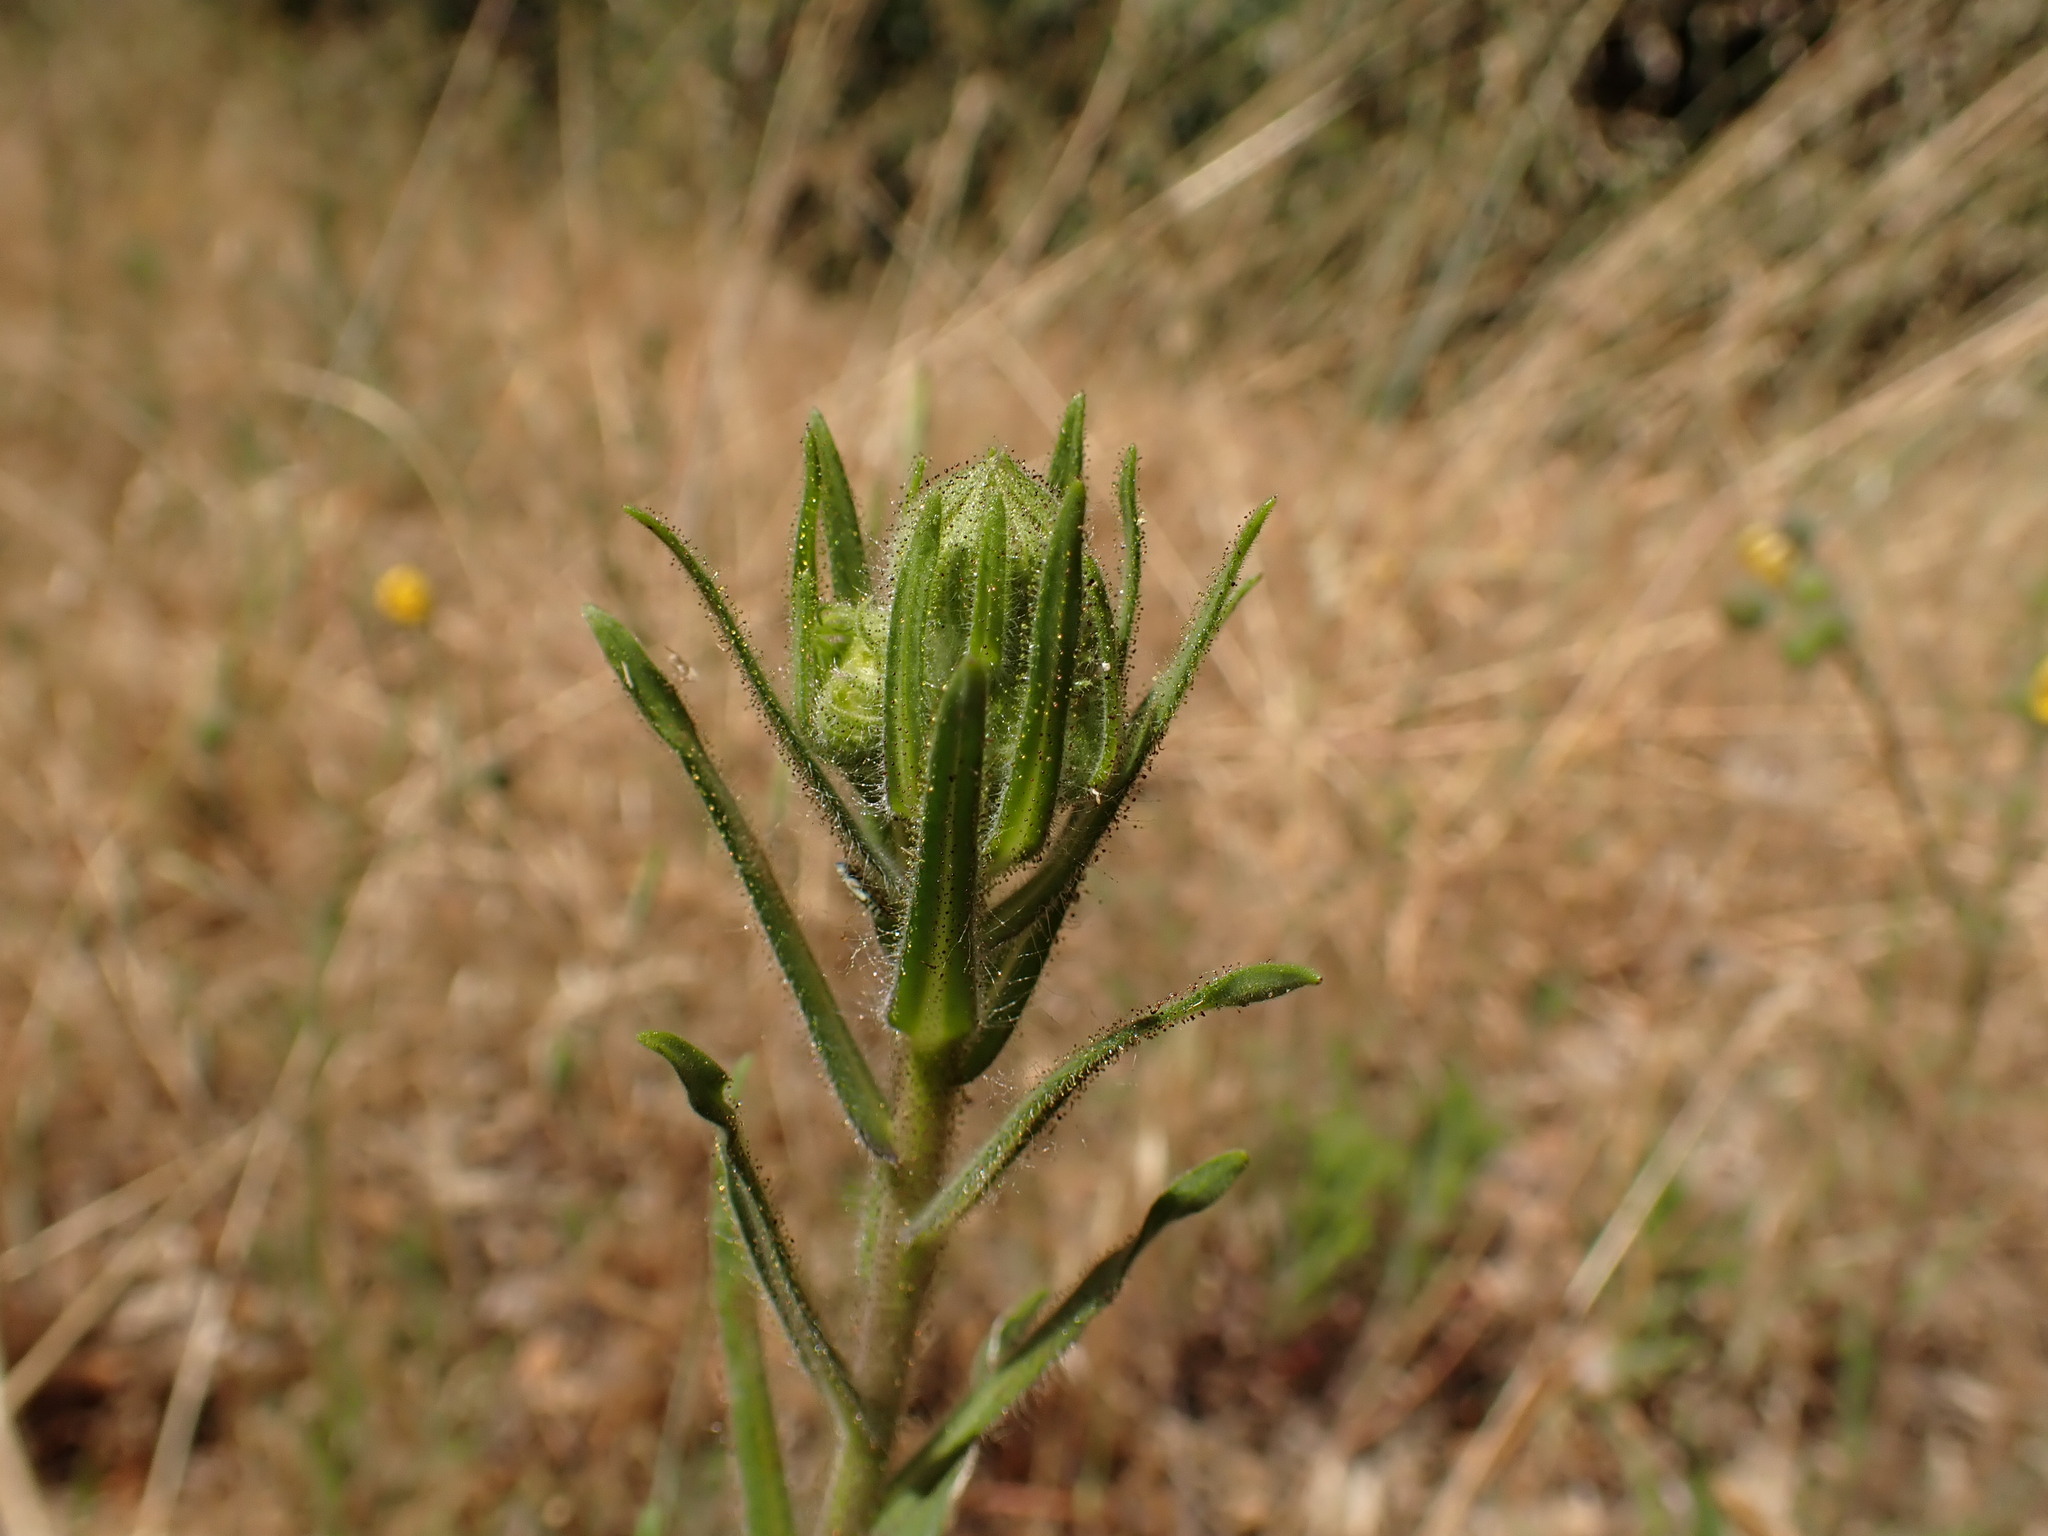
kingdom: Plantae
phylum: Tracheophyta
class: Magnoliopsida
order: Asterales
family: Asteraceae
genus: Madia
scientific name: Madia elegans
